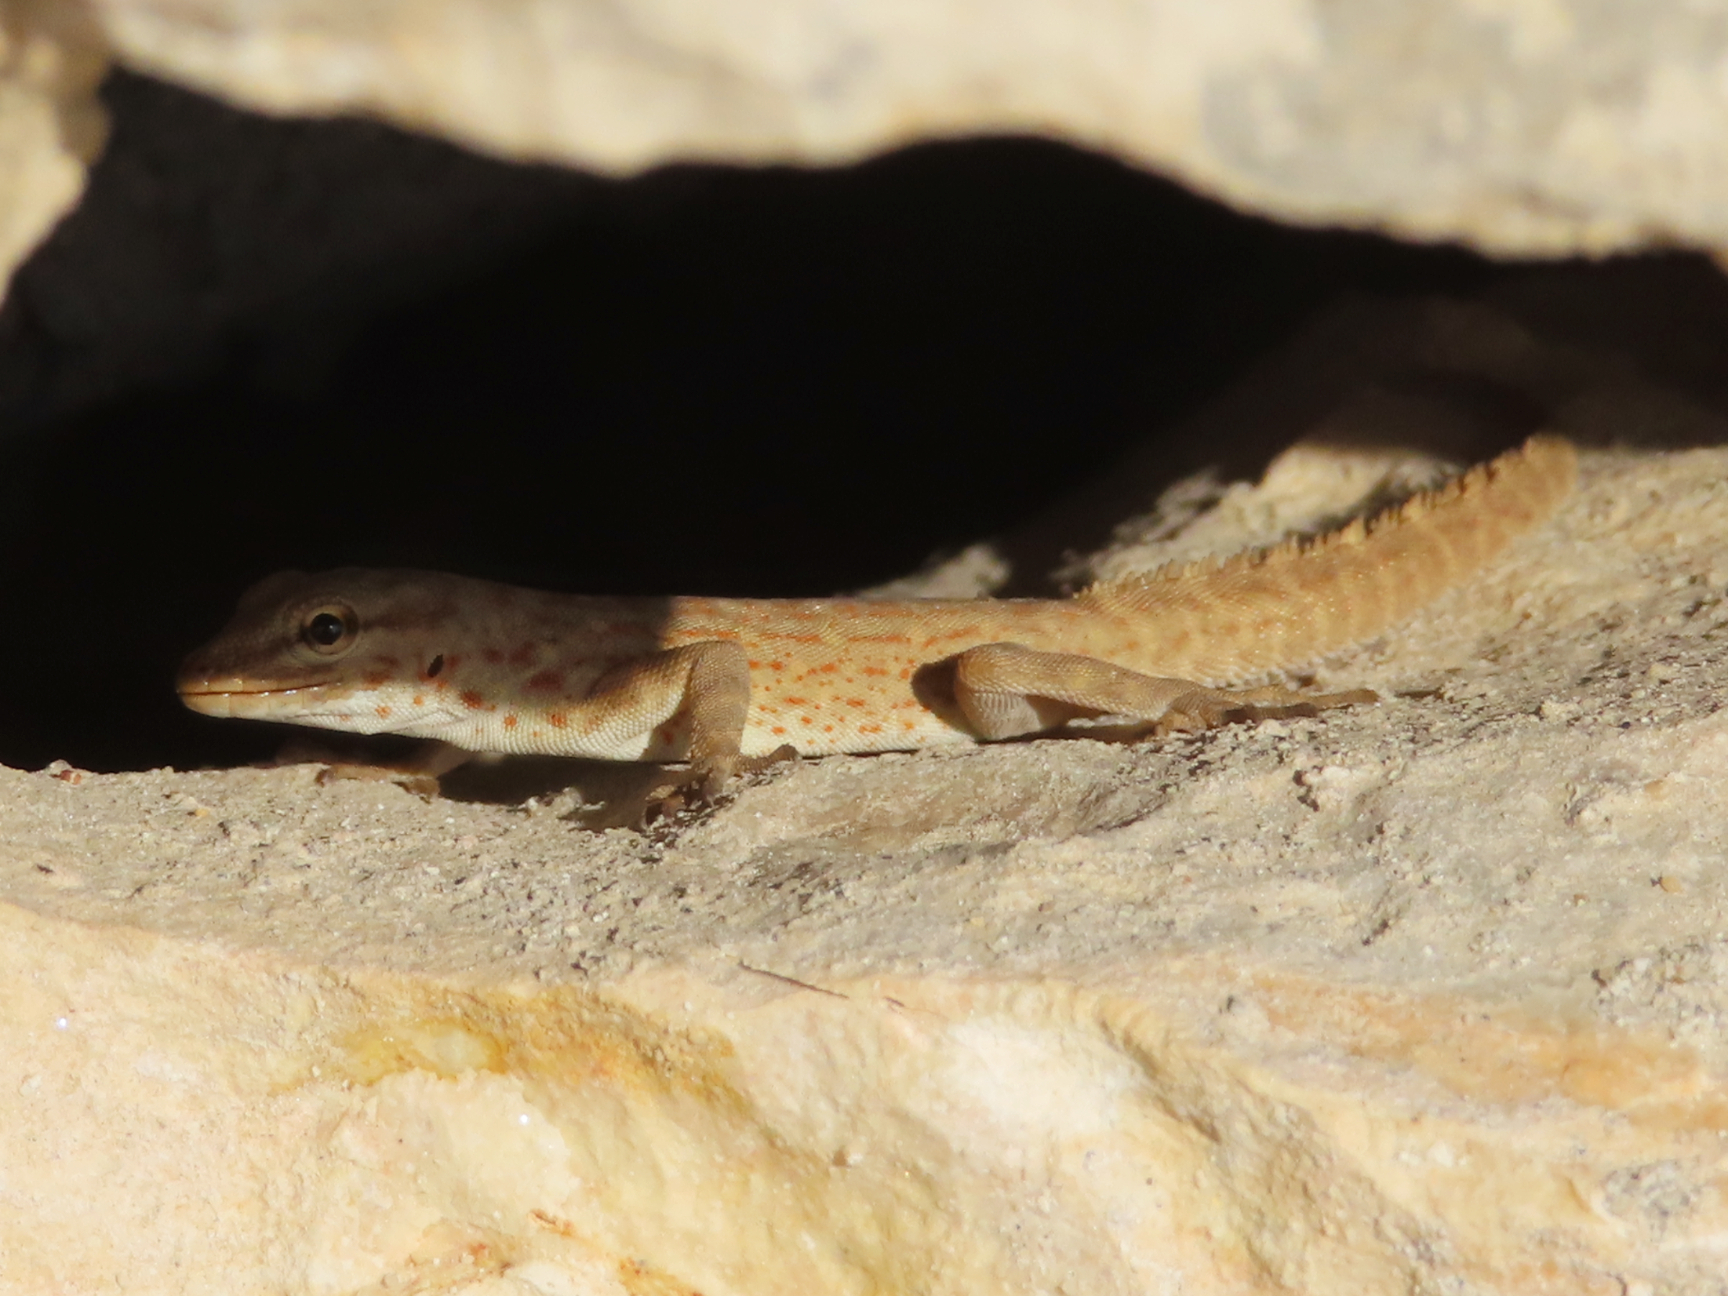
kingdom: Animalia
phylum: Chordata
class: Squamata
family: Sphaerodactylidae
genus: Pristurus
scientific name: Pristurus rupestris
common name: Blanford’s semaphore gecko
